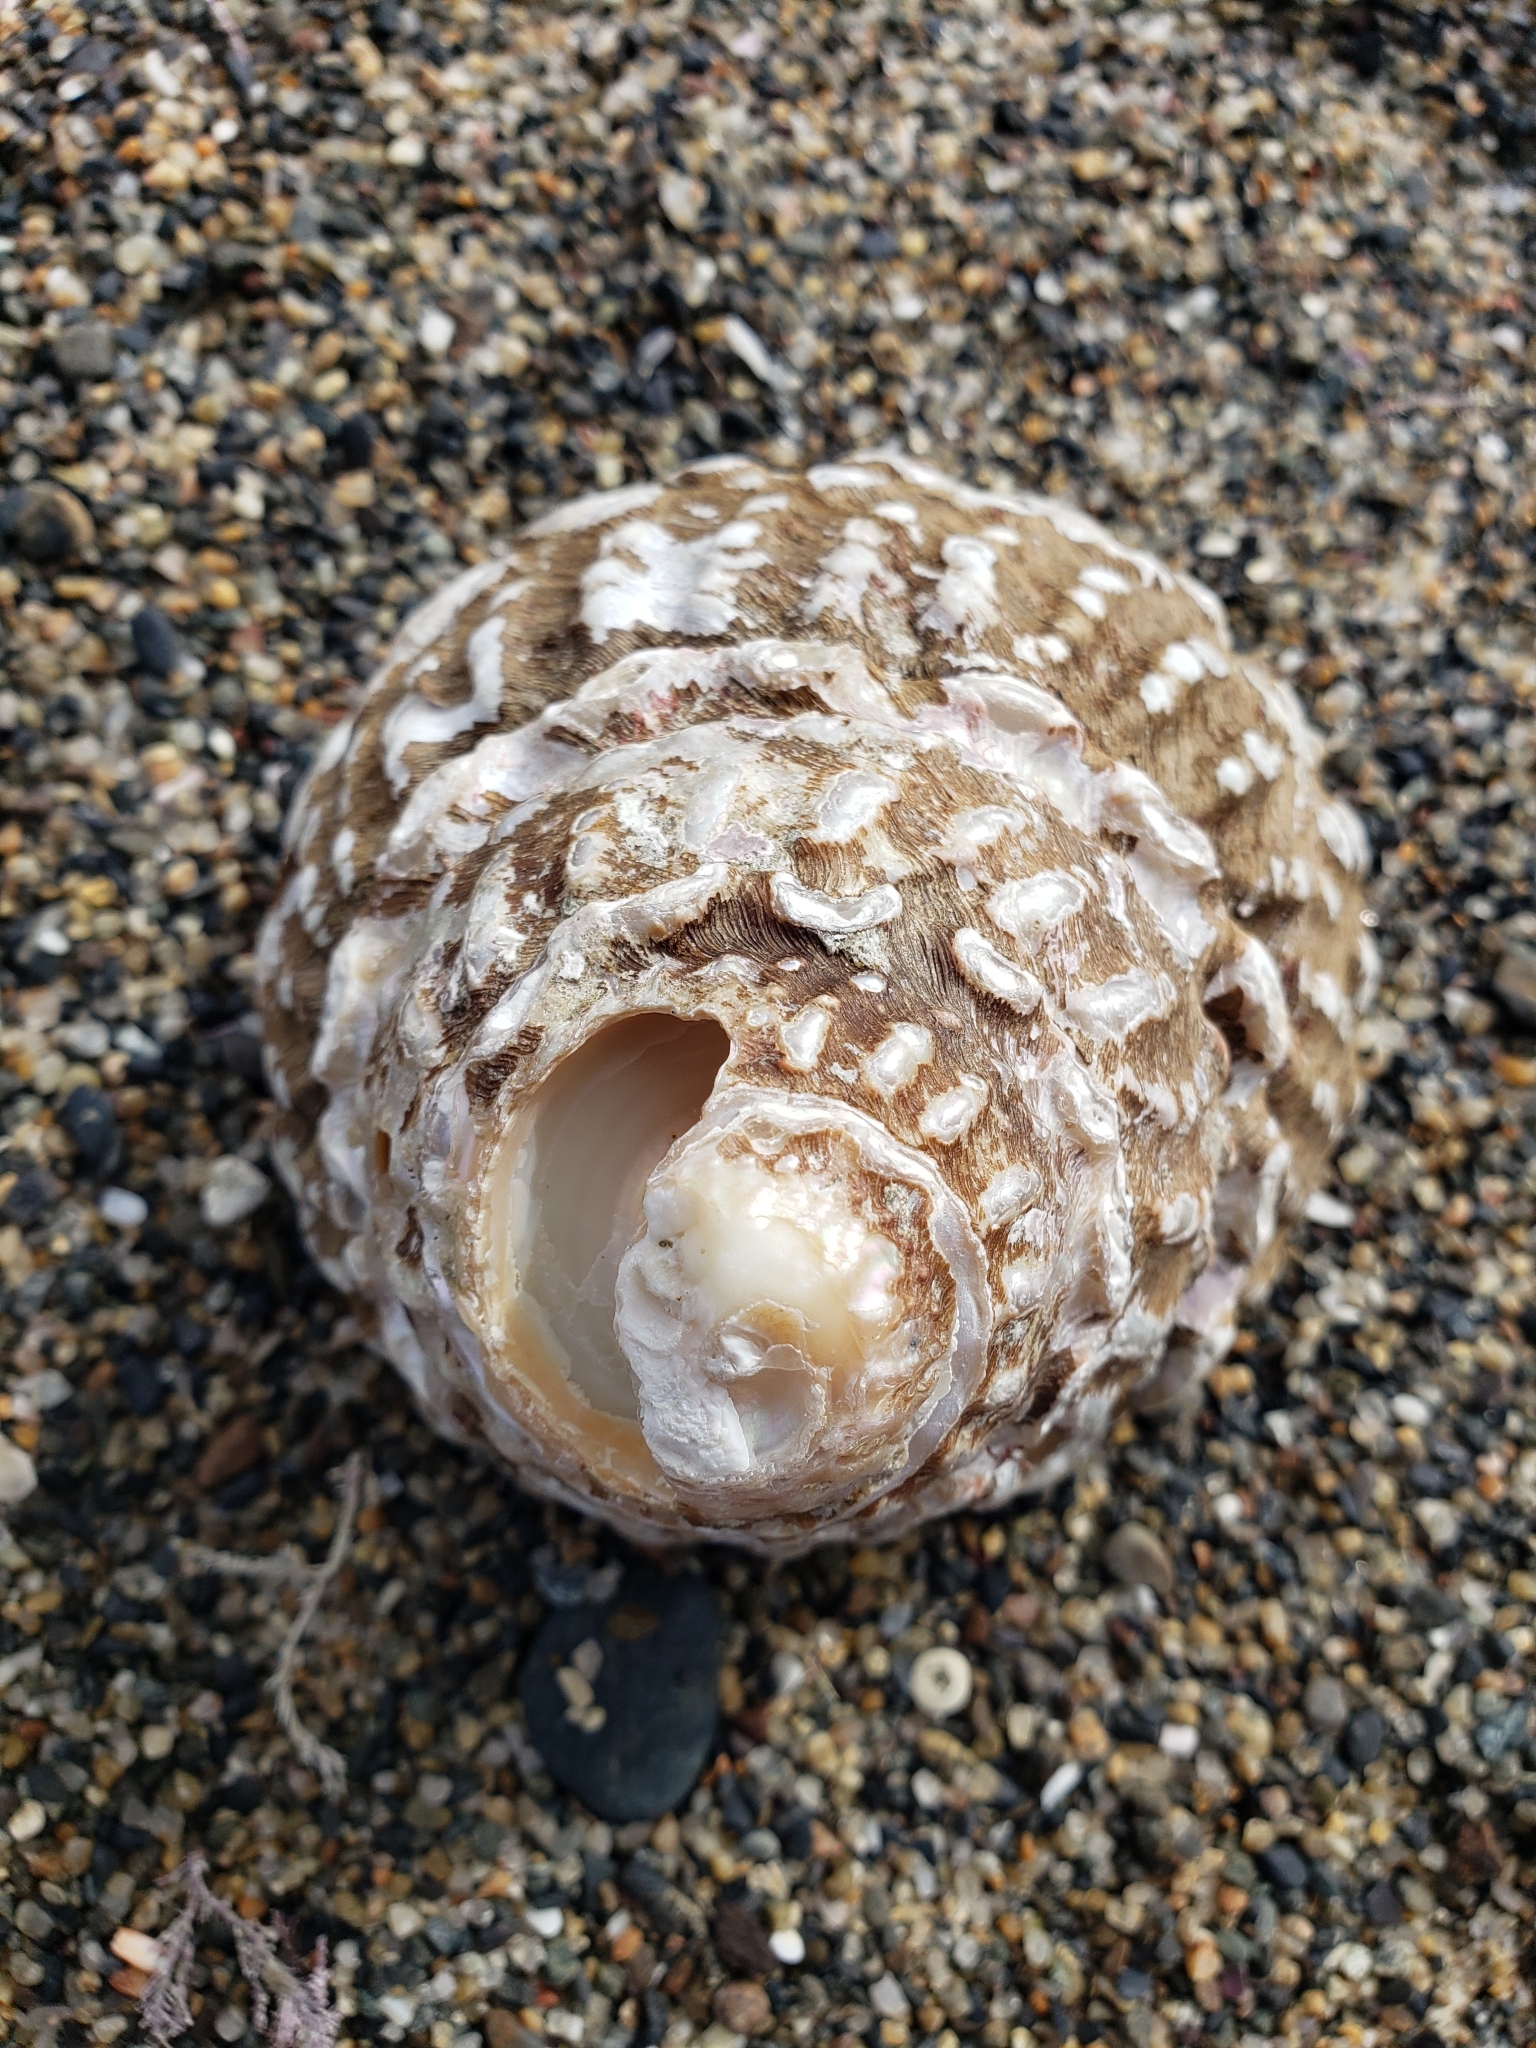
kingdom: Animalia
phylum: Mollusca
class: Gastropoda
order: Trochida
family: Turbinidae
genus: Megastraea
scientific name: Megastraea undosa
